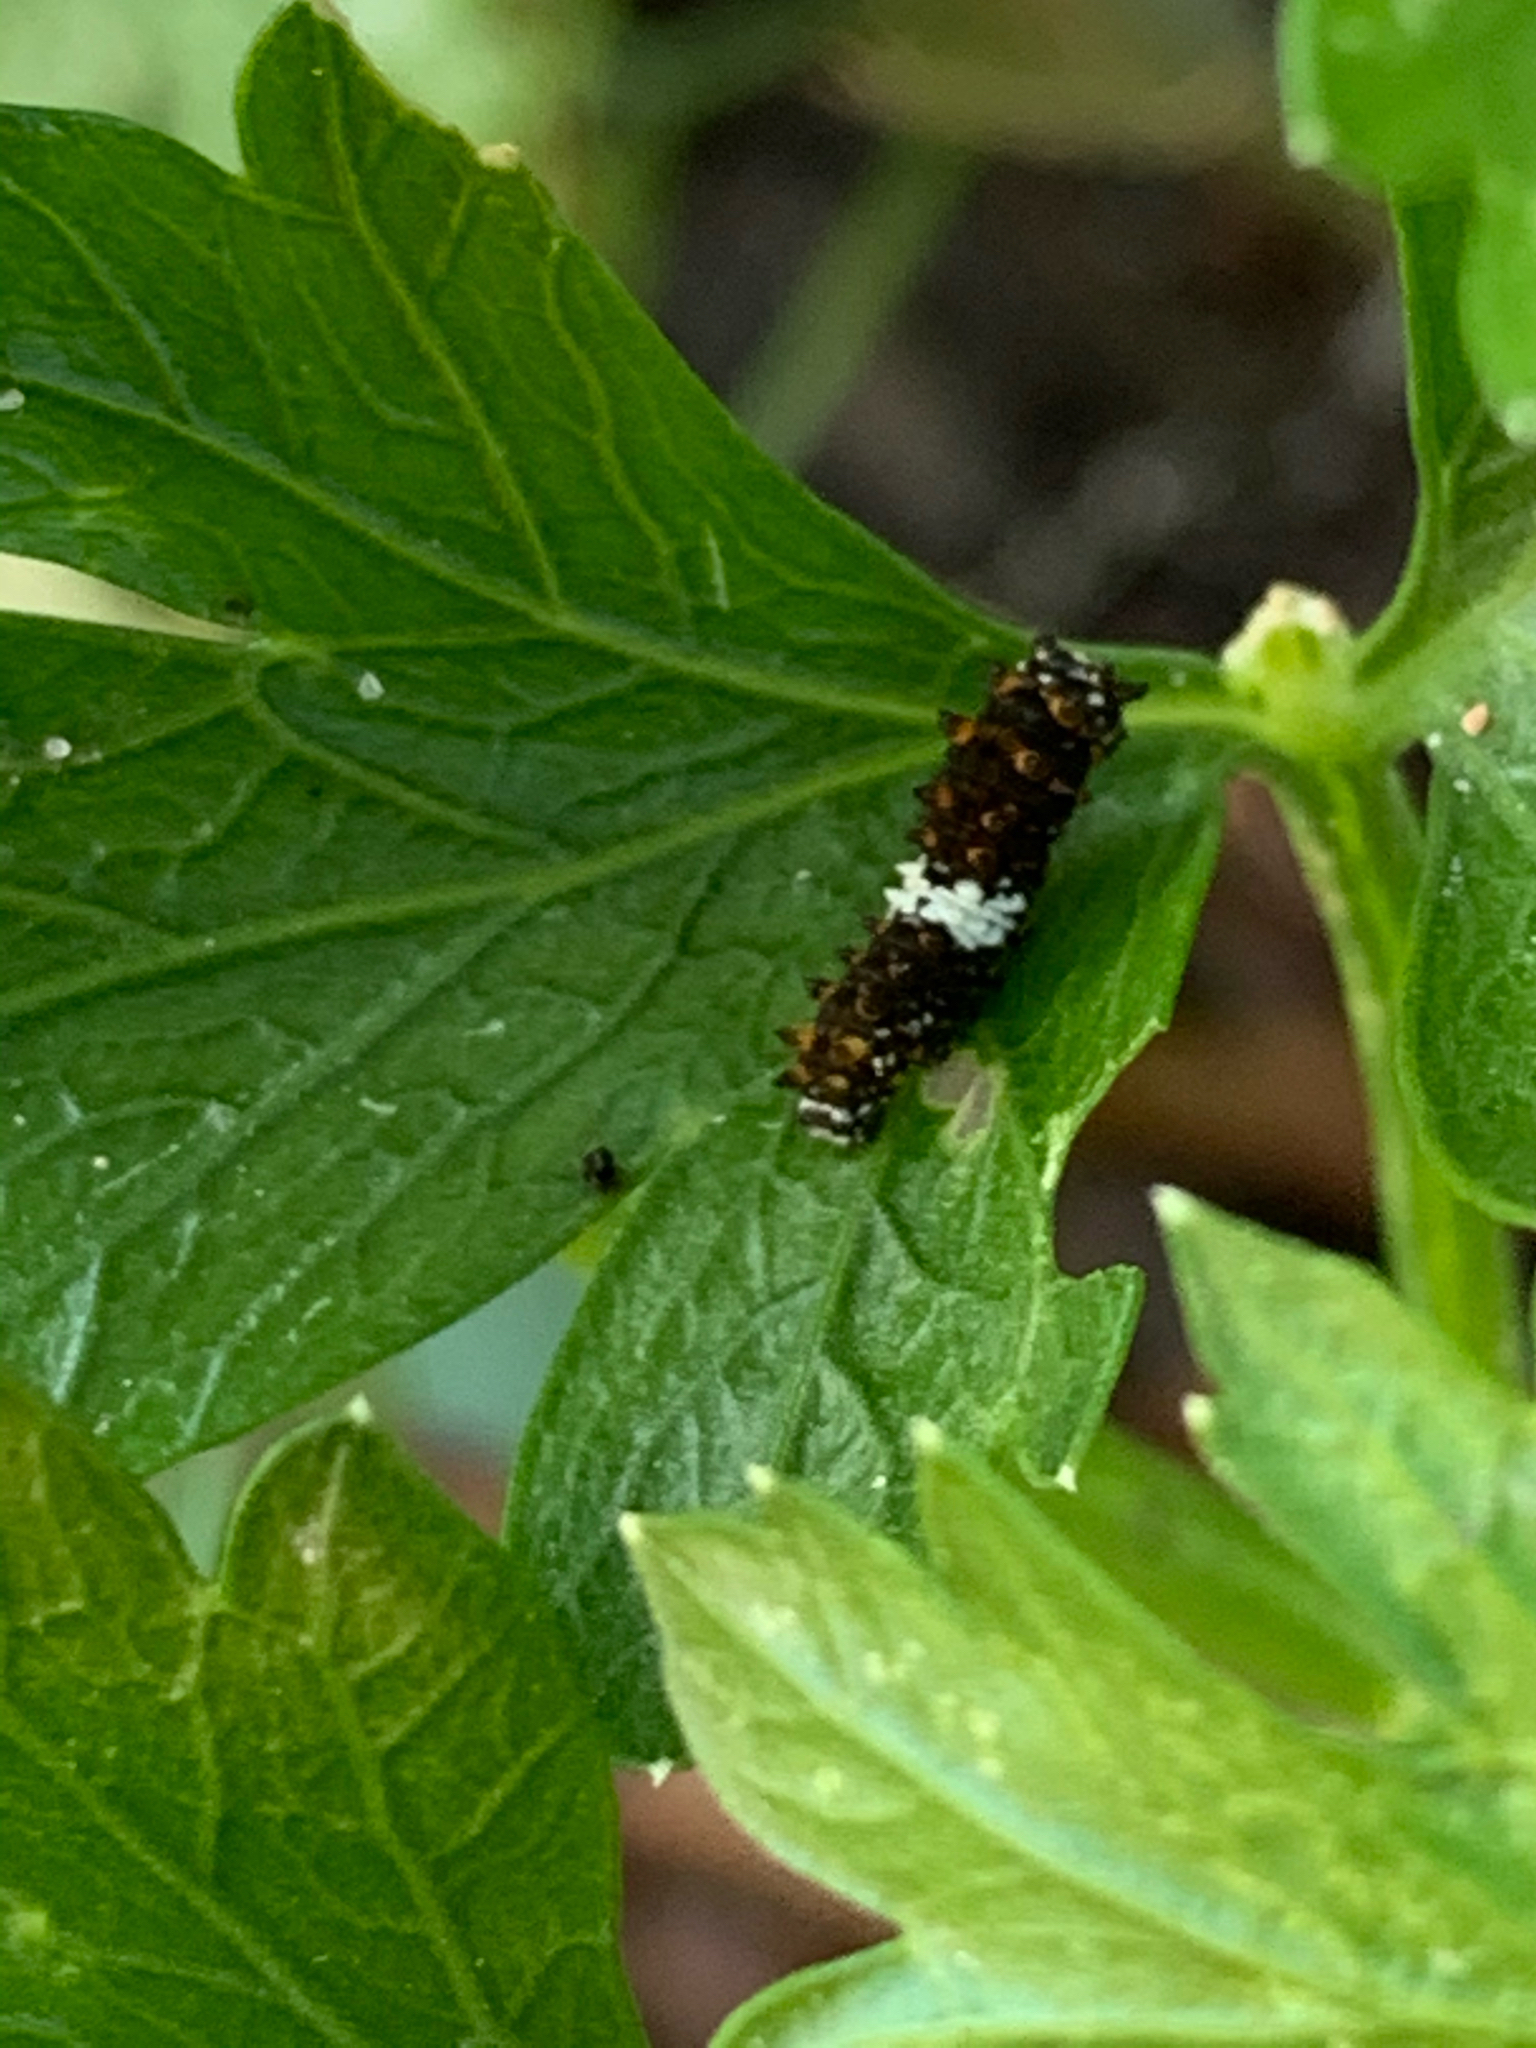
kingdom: Animalia
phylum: Arthropoda
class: Insecta
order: Lepidoptera
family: Papilionidae
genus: Papilio
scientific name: Papilio polyxenes
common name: Black swallowtail
